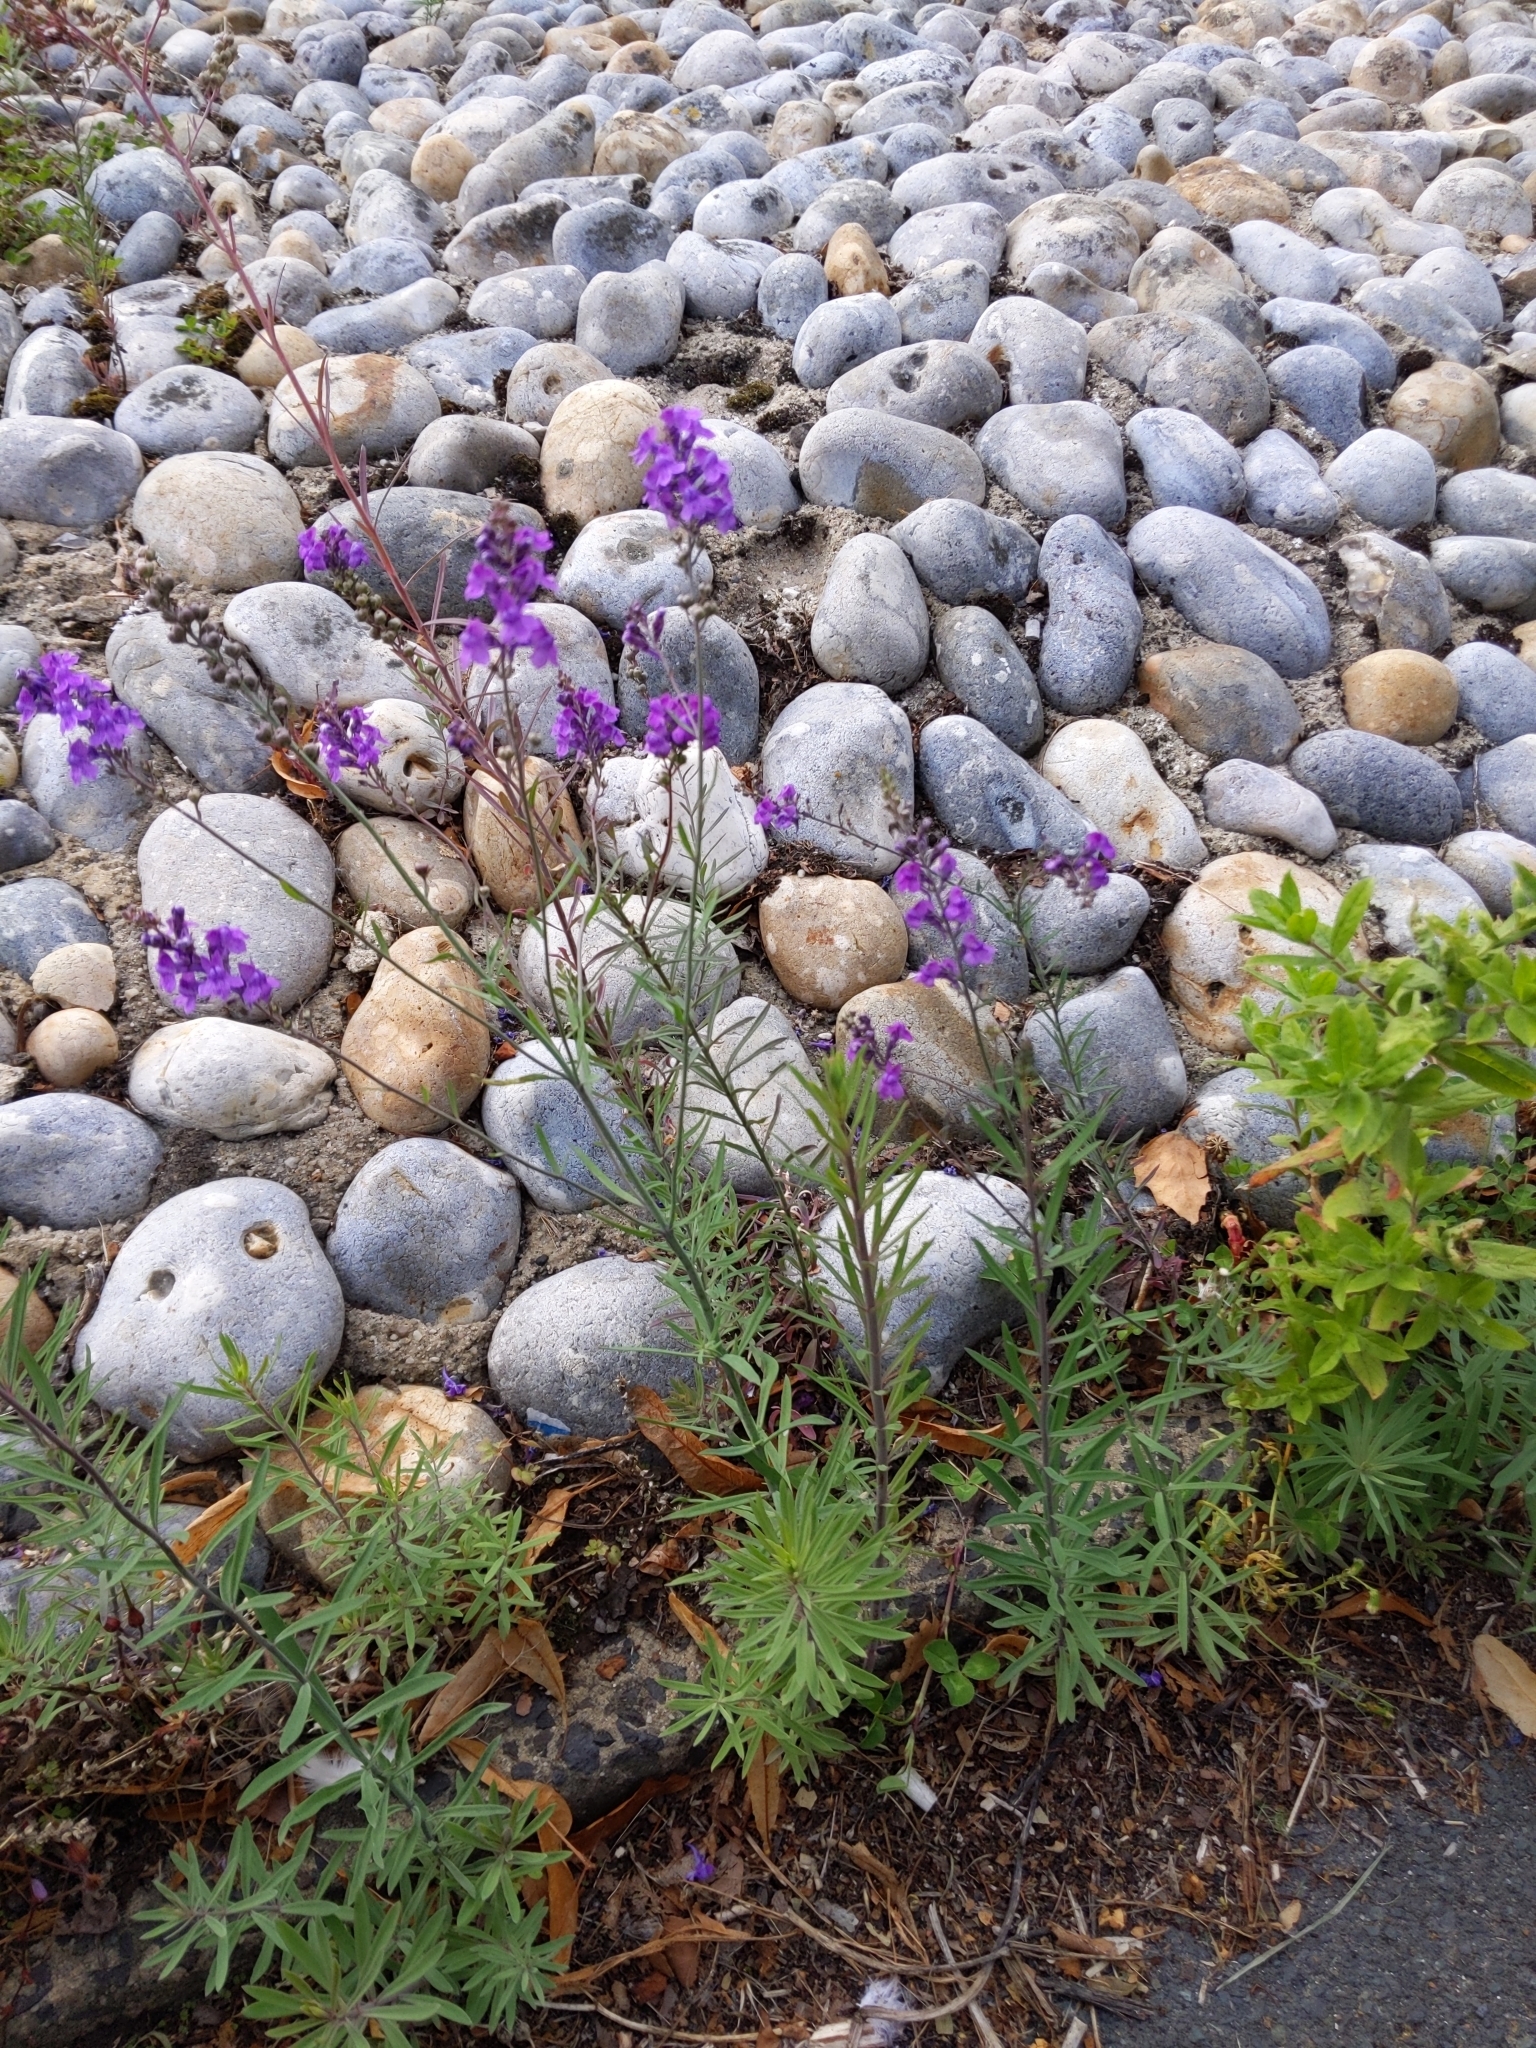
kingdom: Plantae
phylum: Tracheophyta
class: Magnoliopsida
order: Lamiales
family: Plantaginaceae
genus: Linaria
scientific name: Linaria purpurea
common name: Purple toadflax
